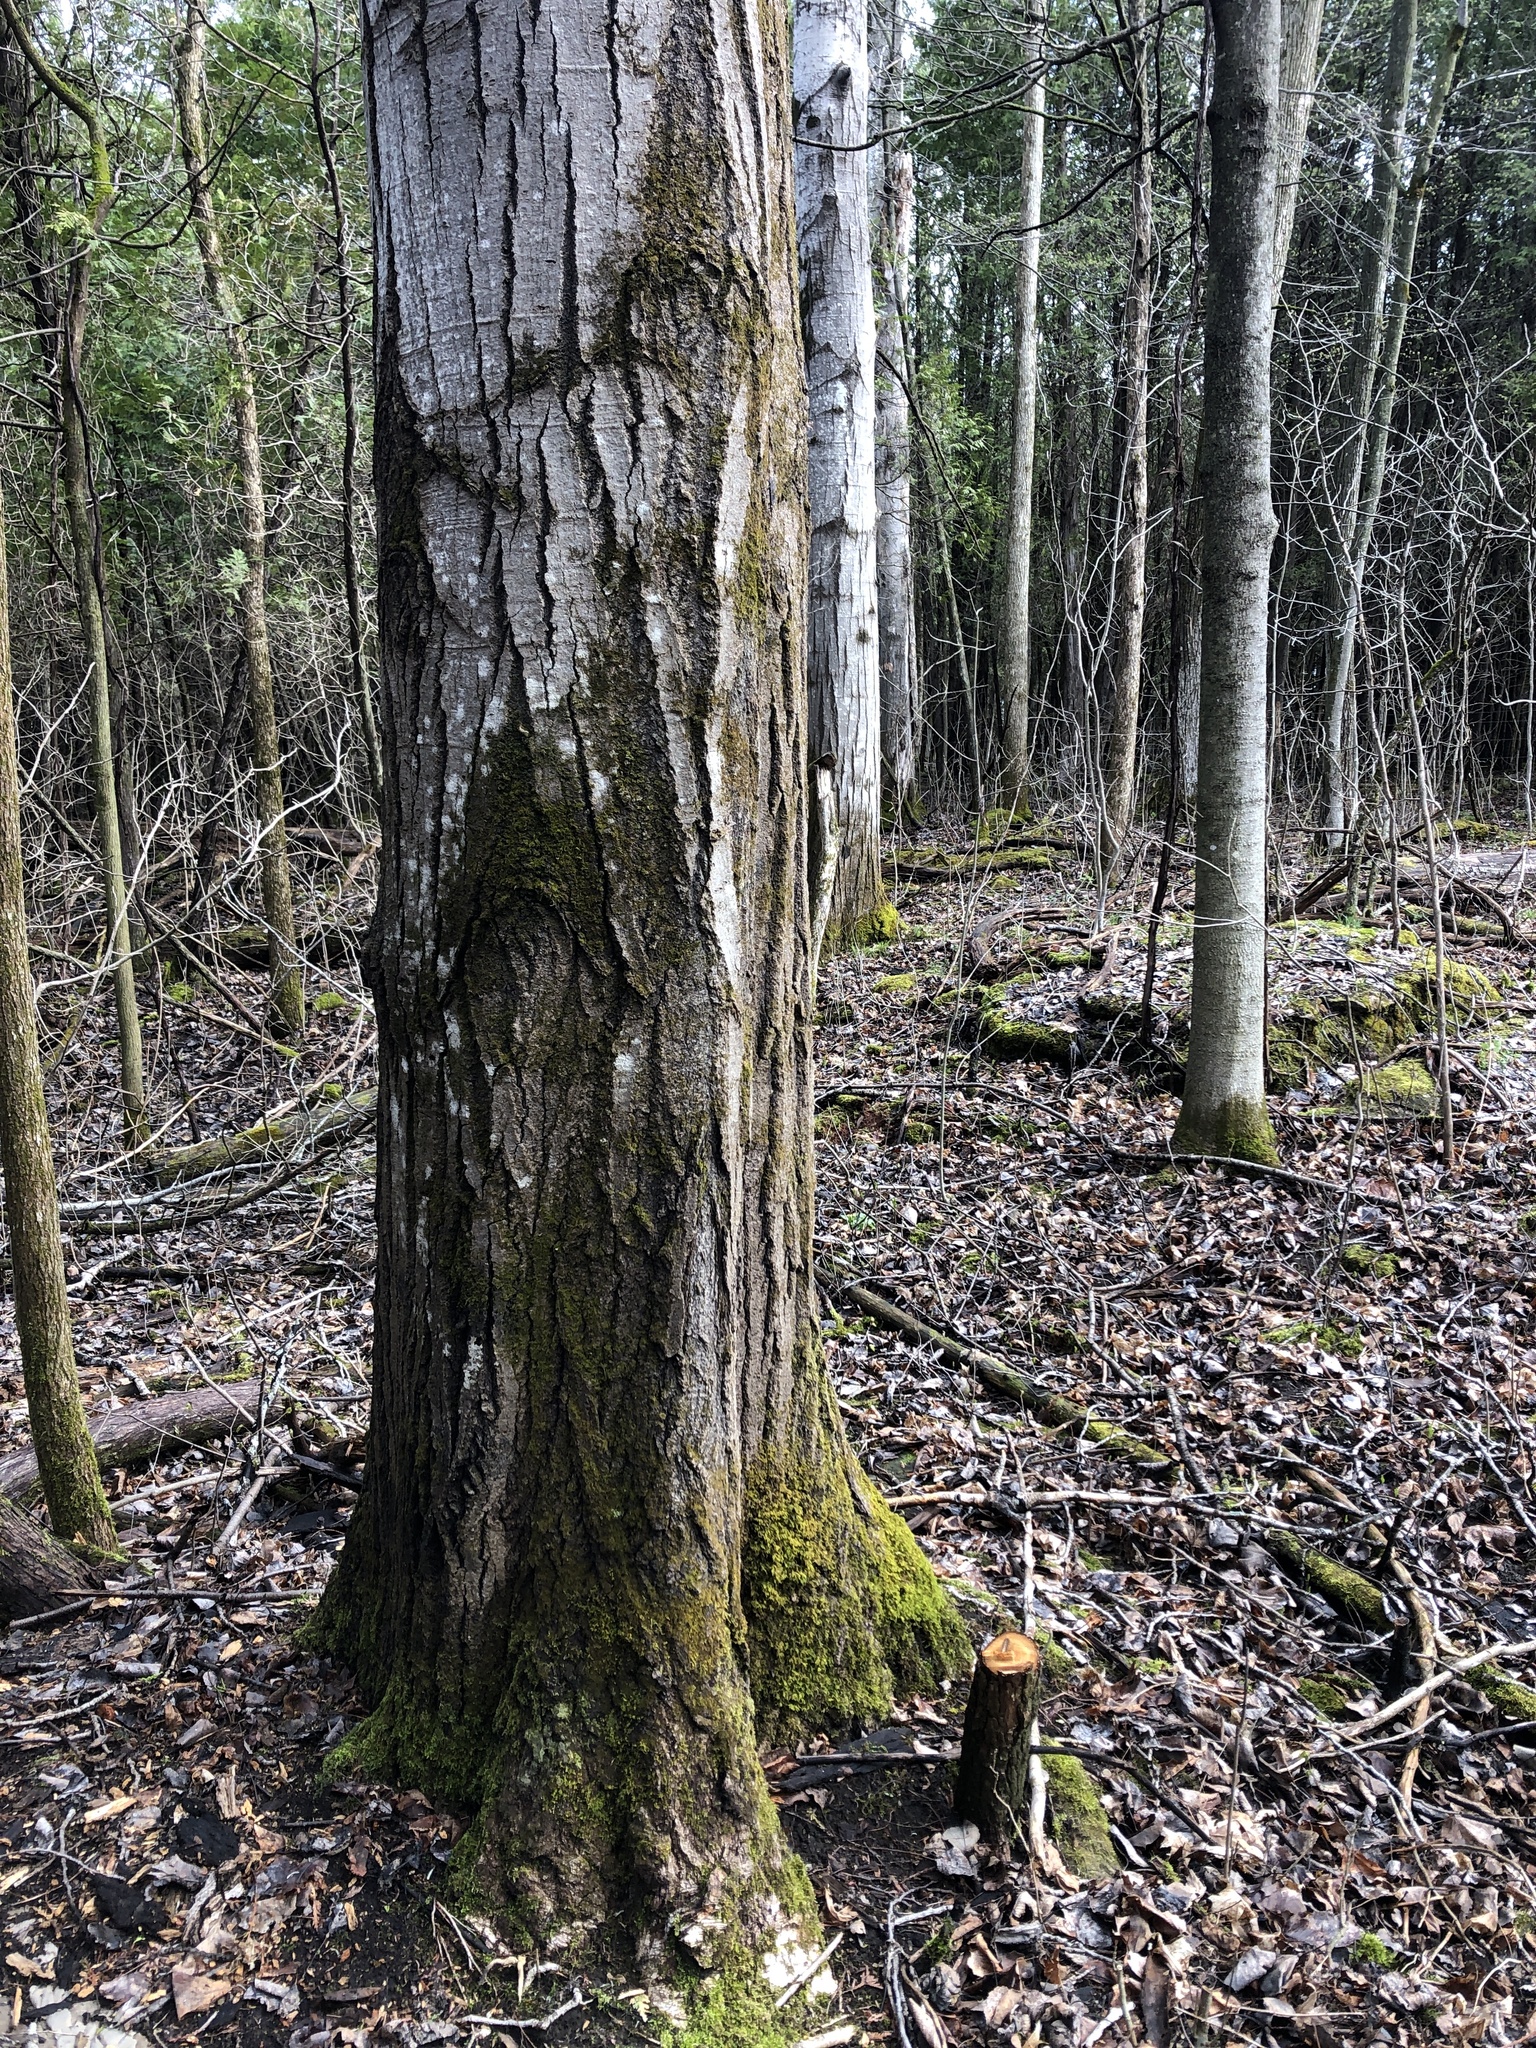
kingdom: Plantae
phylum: Tracheophyta
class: Magnoliopsida
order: Malpighiales
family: Salicaceae
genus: Populus
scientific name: Populus tremuloides
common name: Quaking aspen
